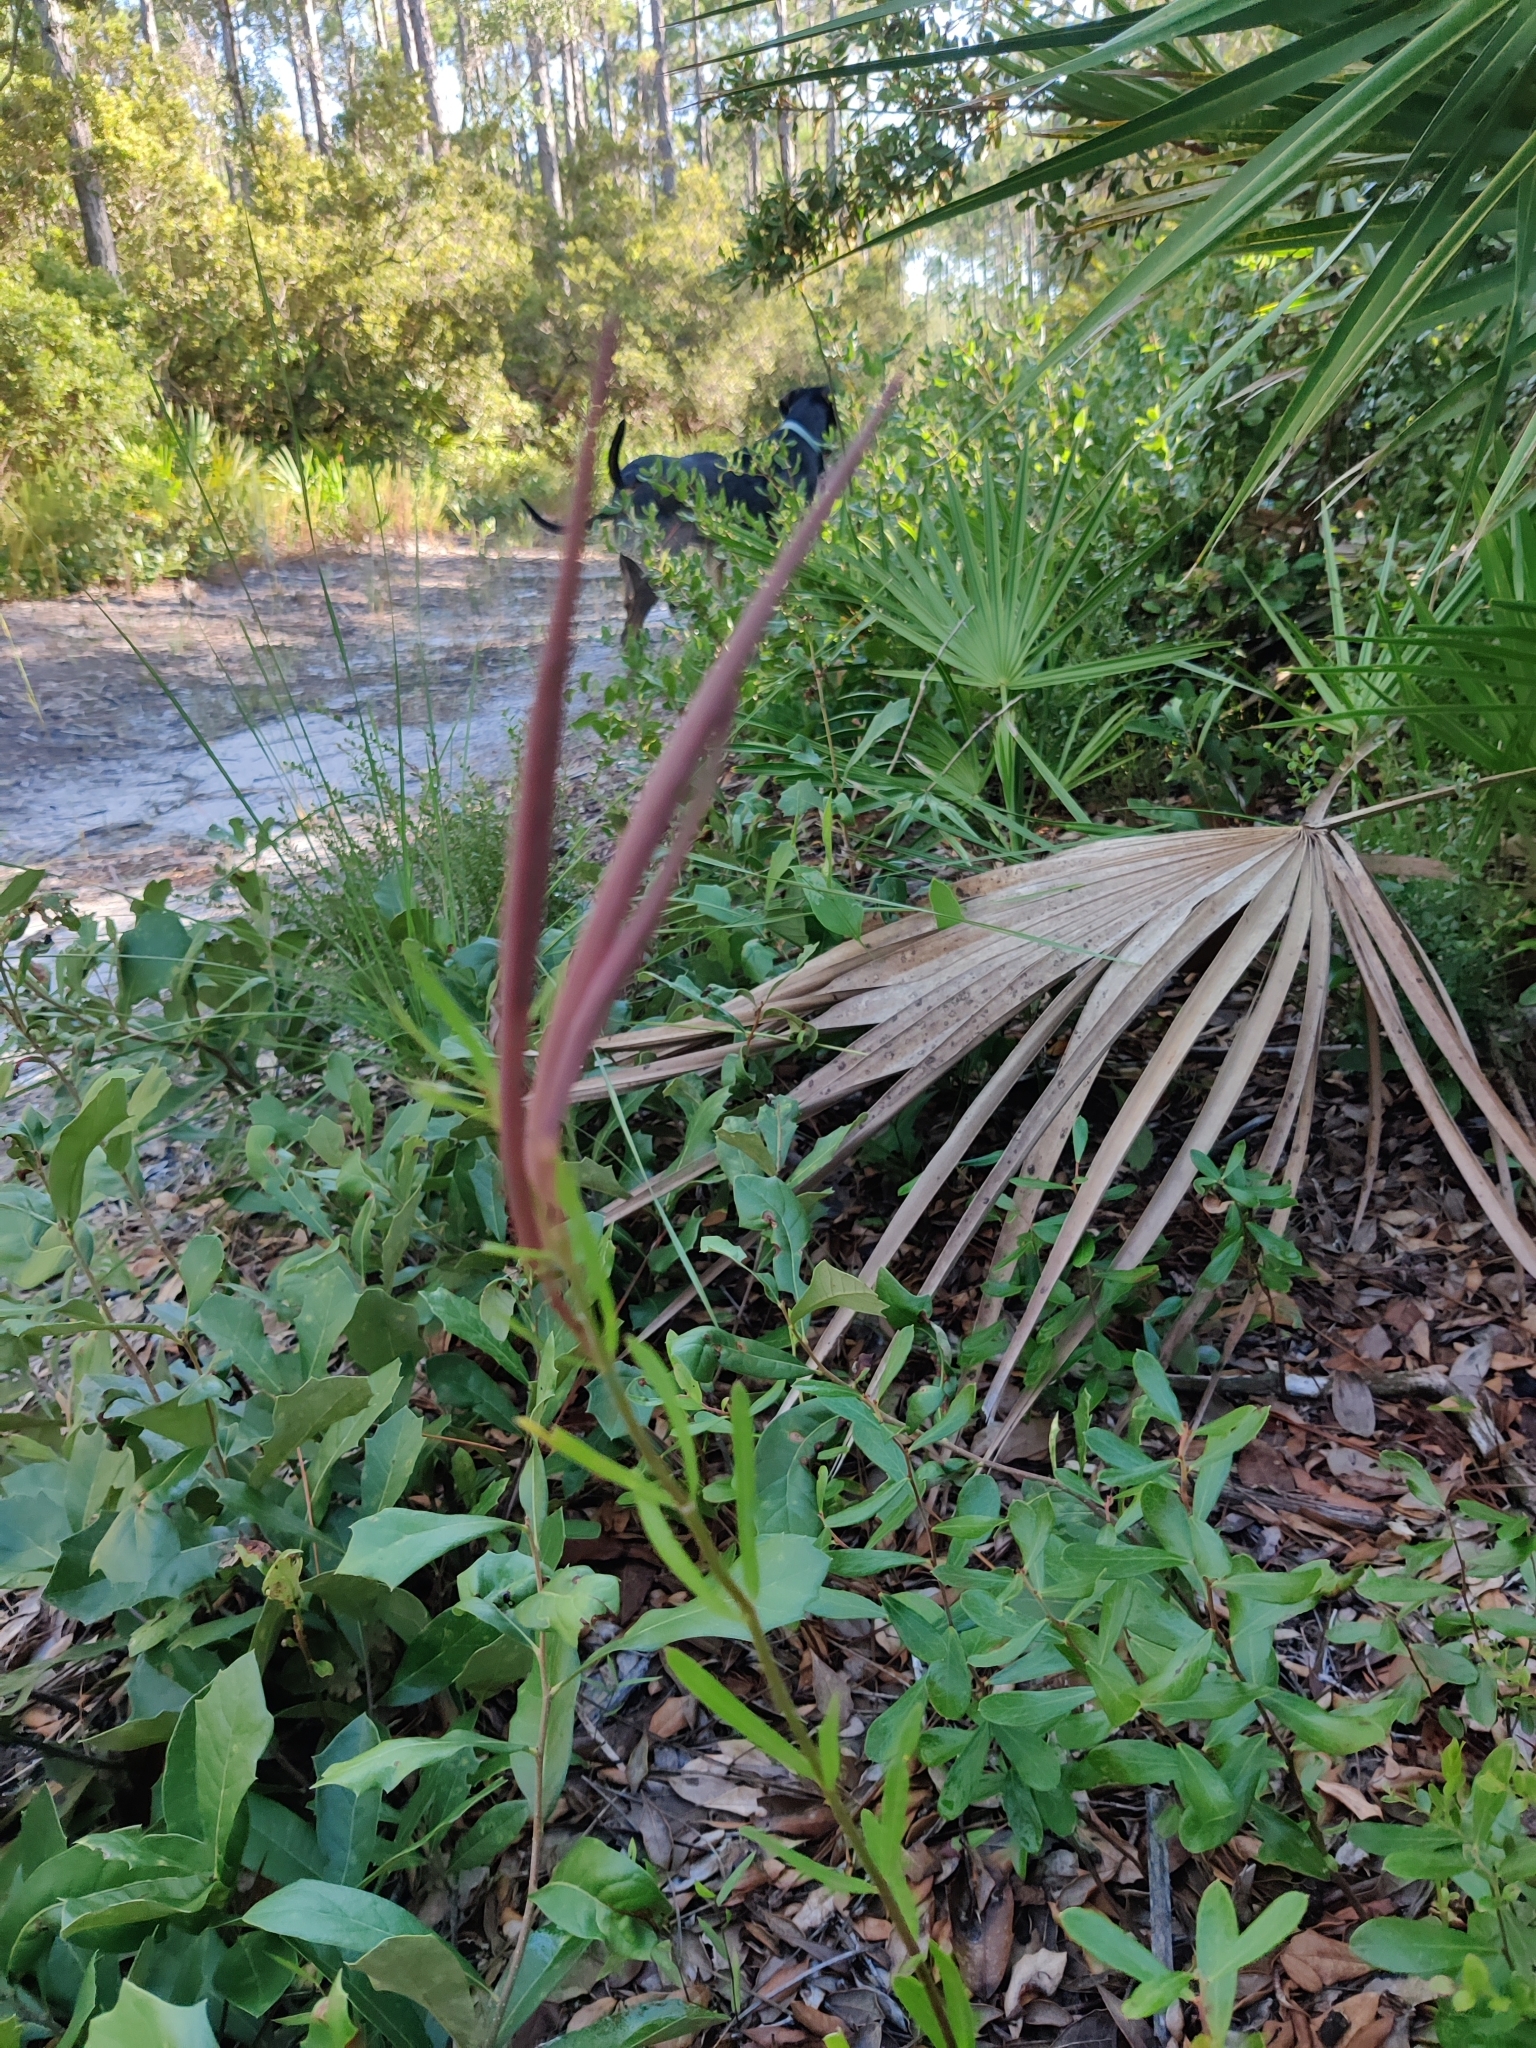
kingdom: Plantae
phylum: Tracheophyta
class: Magnoliopsida
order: Gentianales
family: Apocynaceae
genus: Asclepias
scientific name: Asclepias pedicellata
